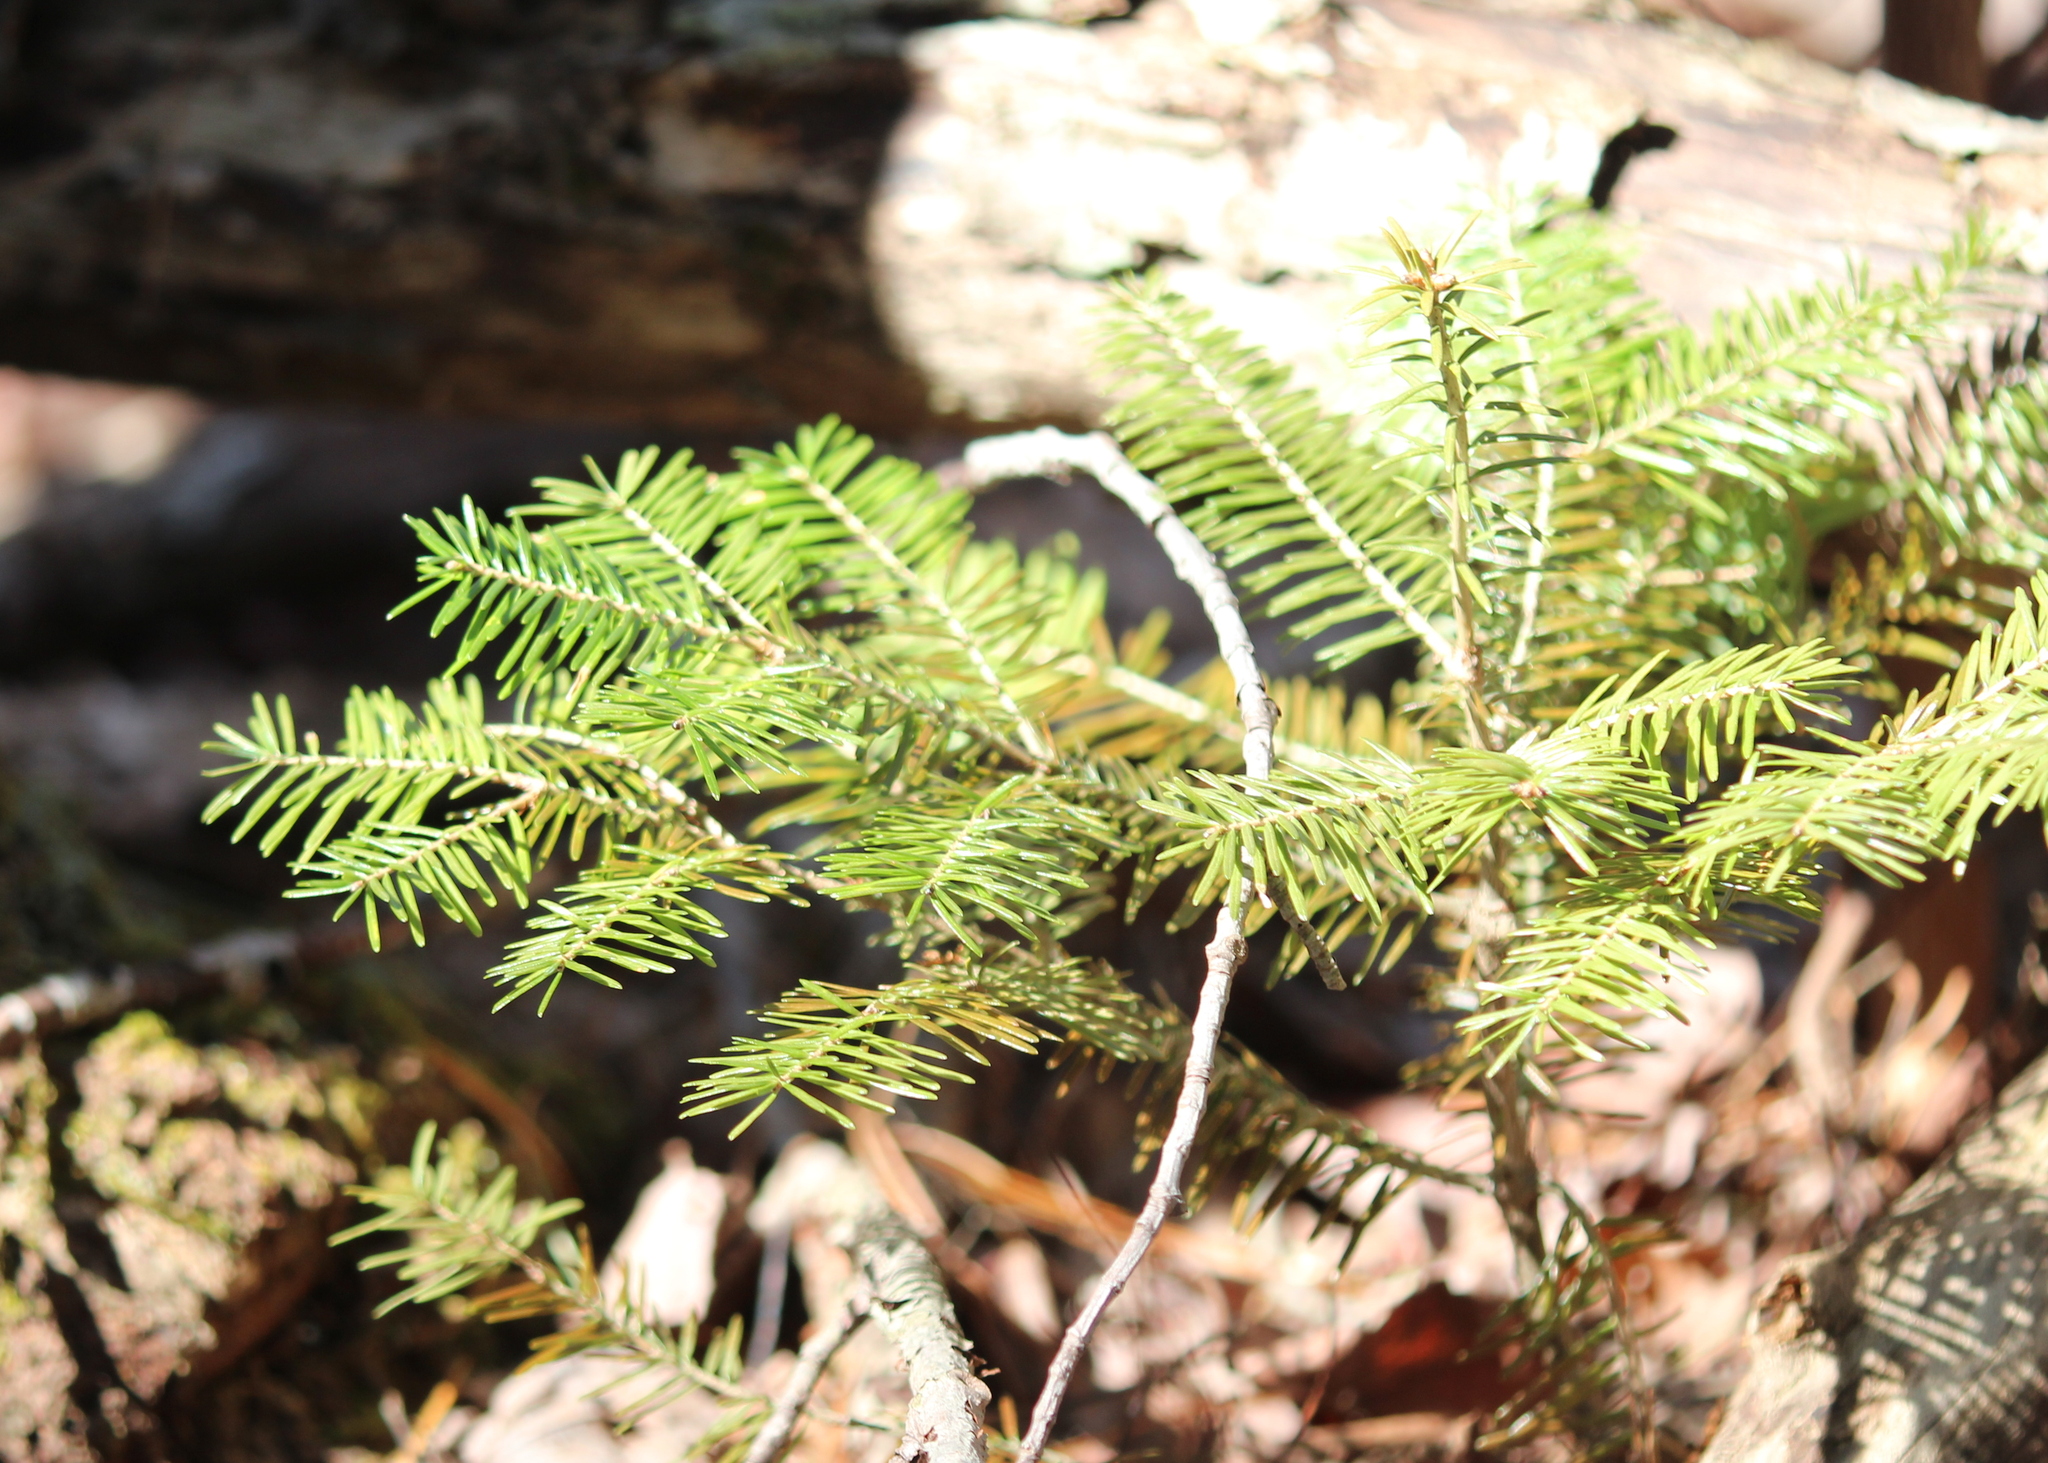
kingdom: Plantae
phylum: Tracheophyta
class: Pinopsida
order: Pinales
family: Pinaceae
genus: Abies
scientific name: Abies balsamea
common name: Balsam fir
